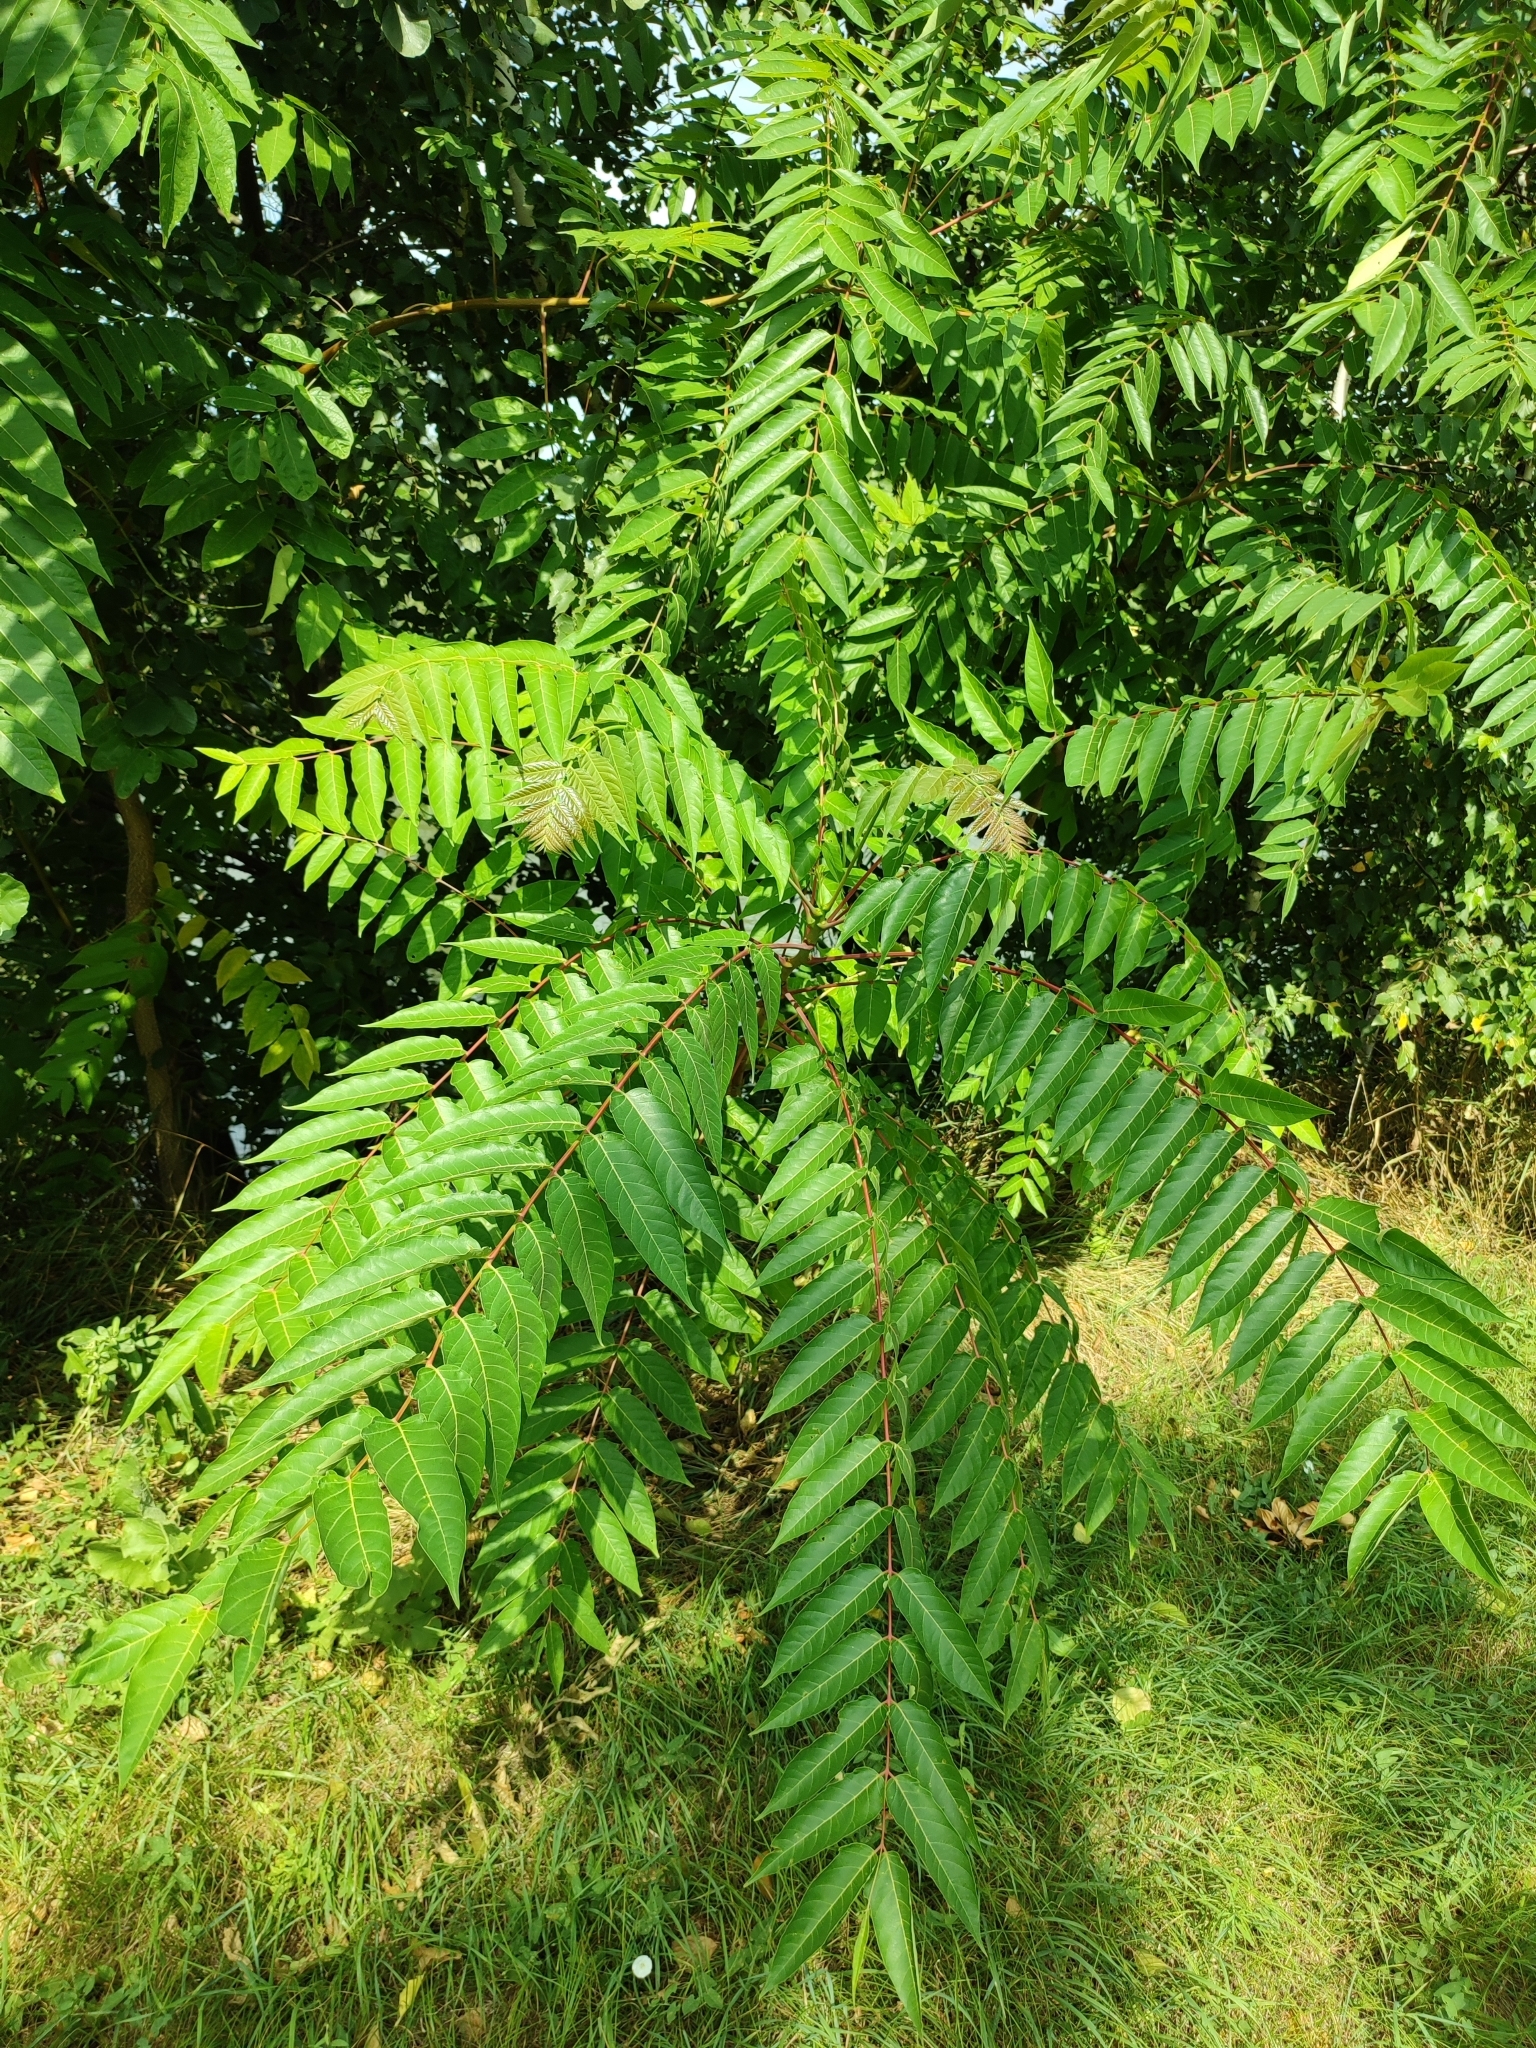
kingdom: Plantae
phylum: Tracheophyta
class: Magnoliopsida
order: Sapindales
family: Simaroubaceae
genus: Ailanthus
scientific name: Ailanthus altissima
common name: Tree-of-heaven
